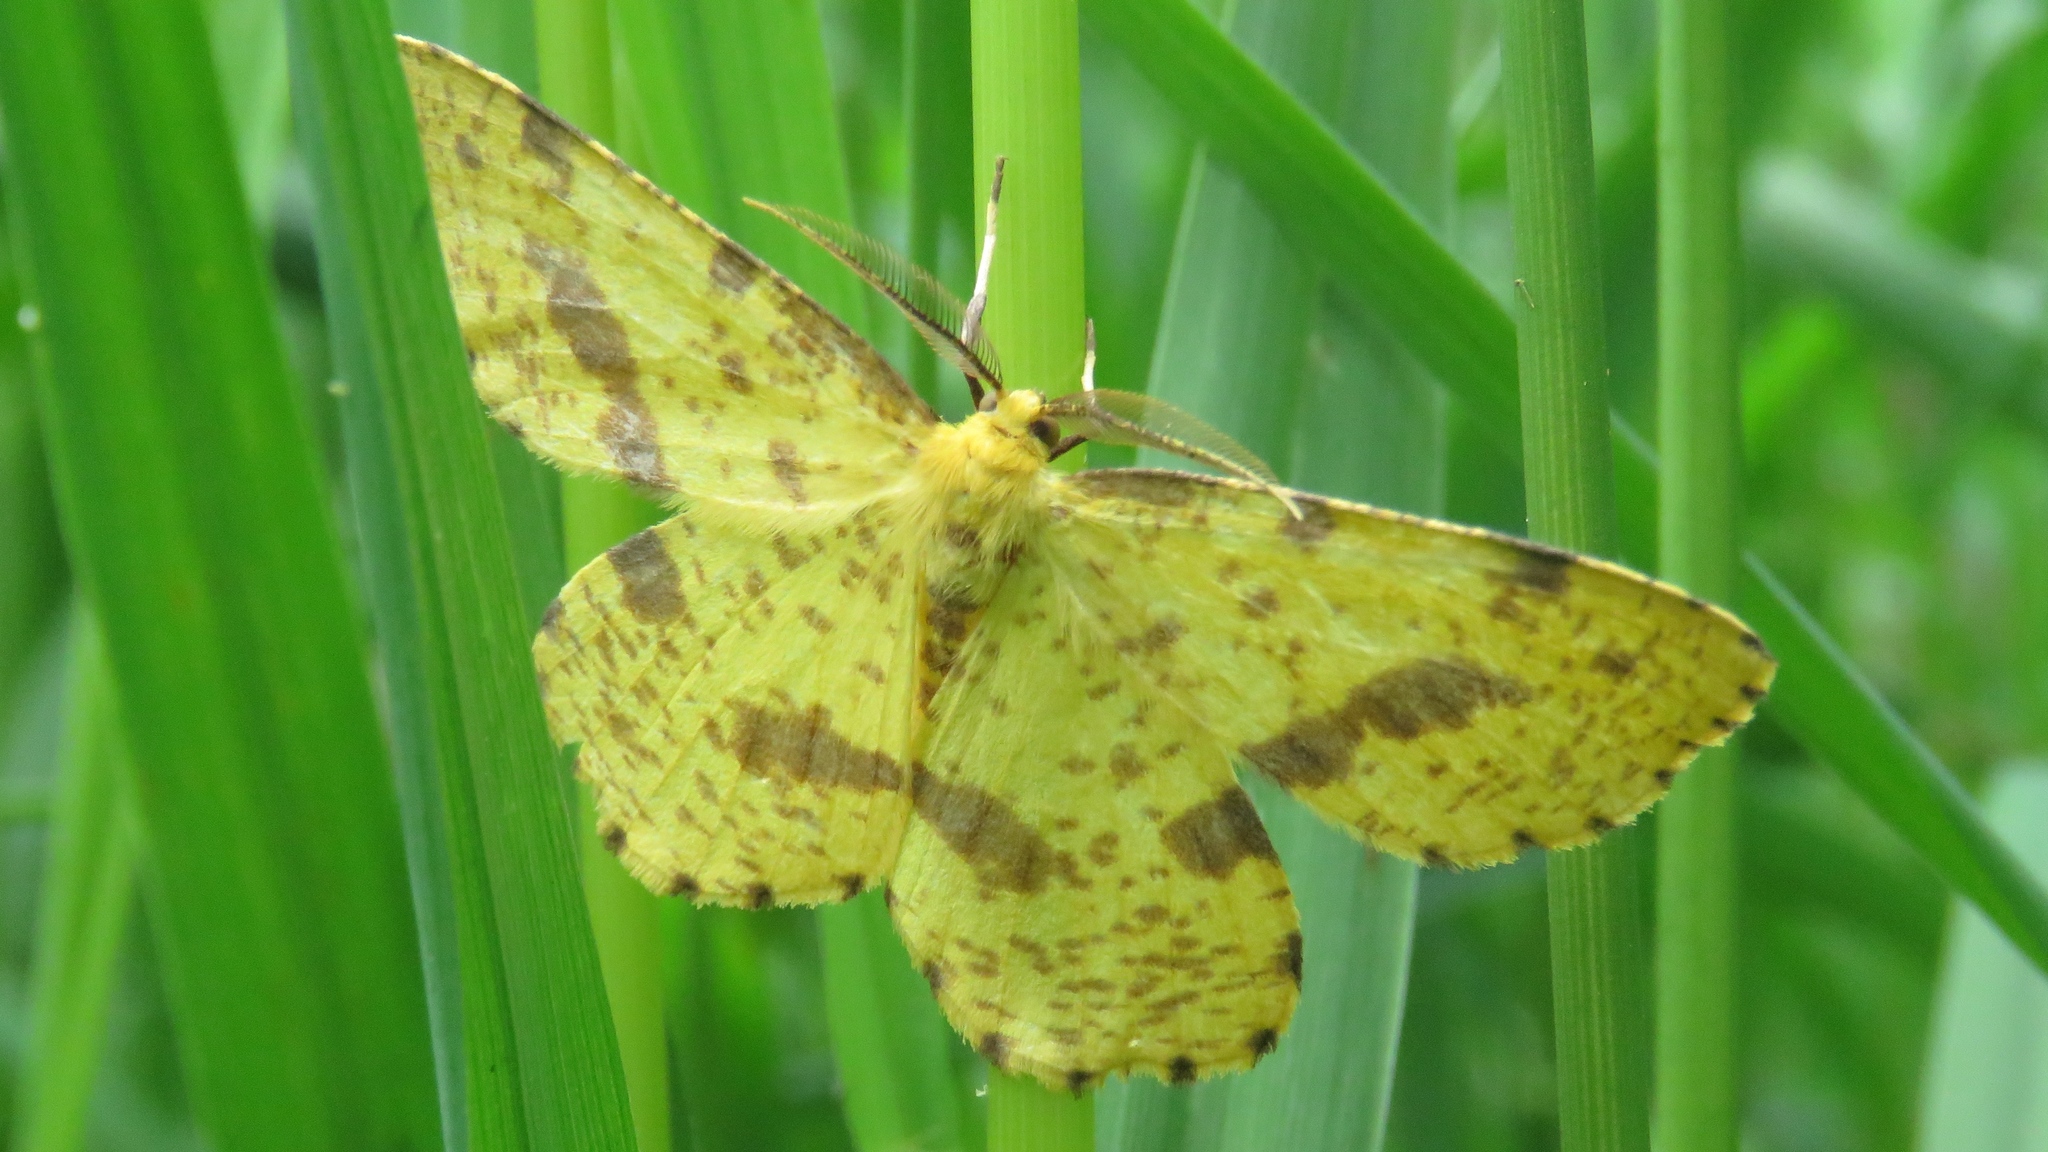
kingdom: Animalia
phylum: Arthropoda
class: Insecta
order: Lepidoptera
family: Geometridae
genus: Xanthotype
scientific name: Xanthotype
